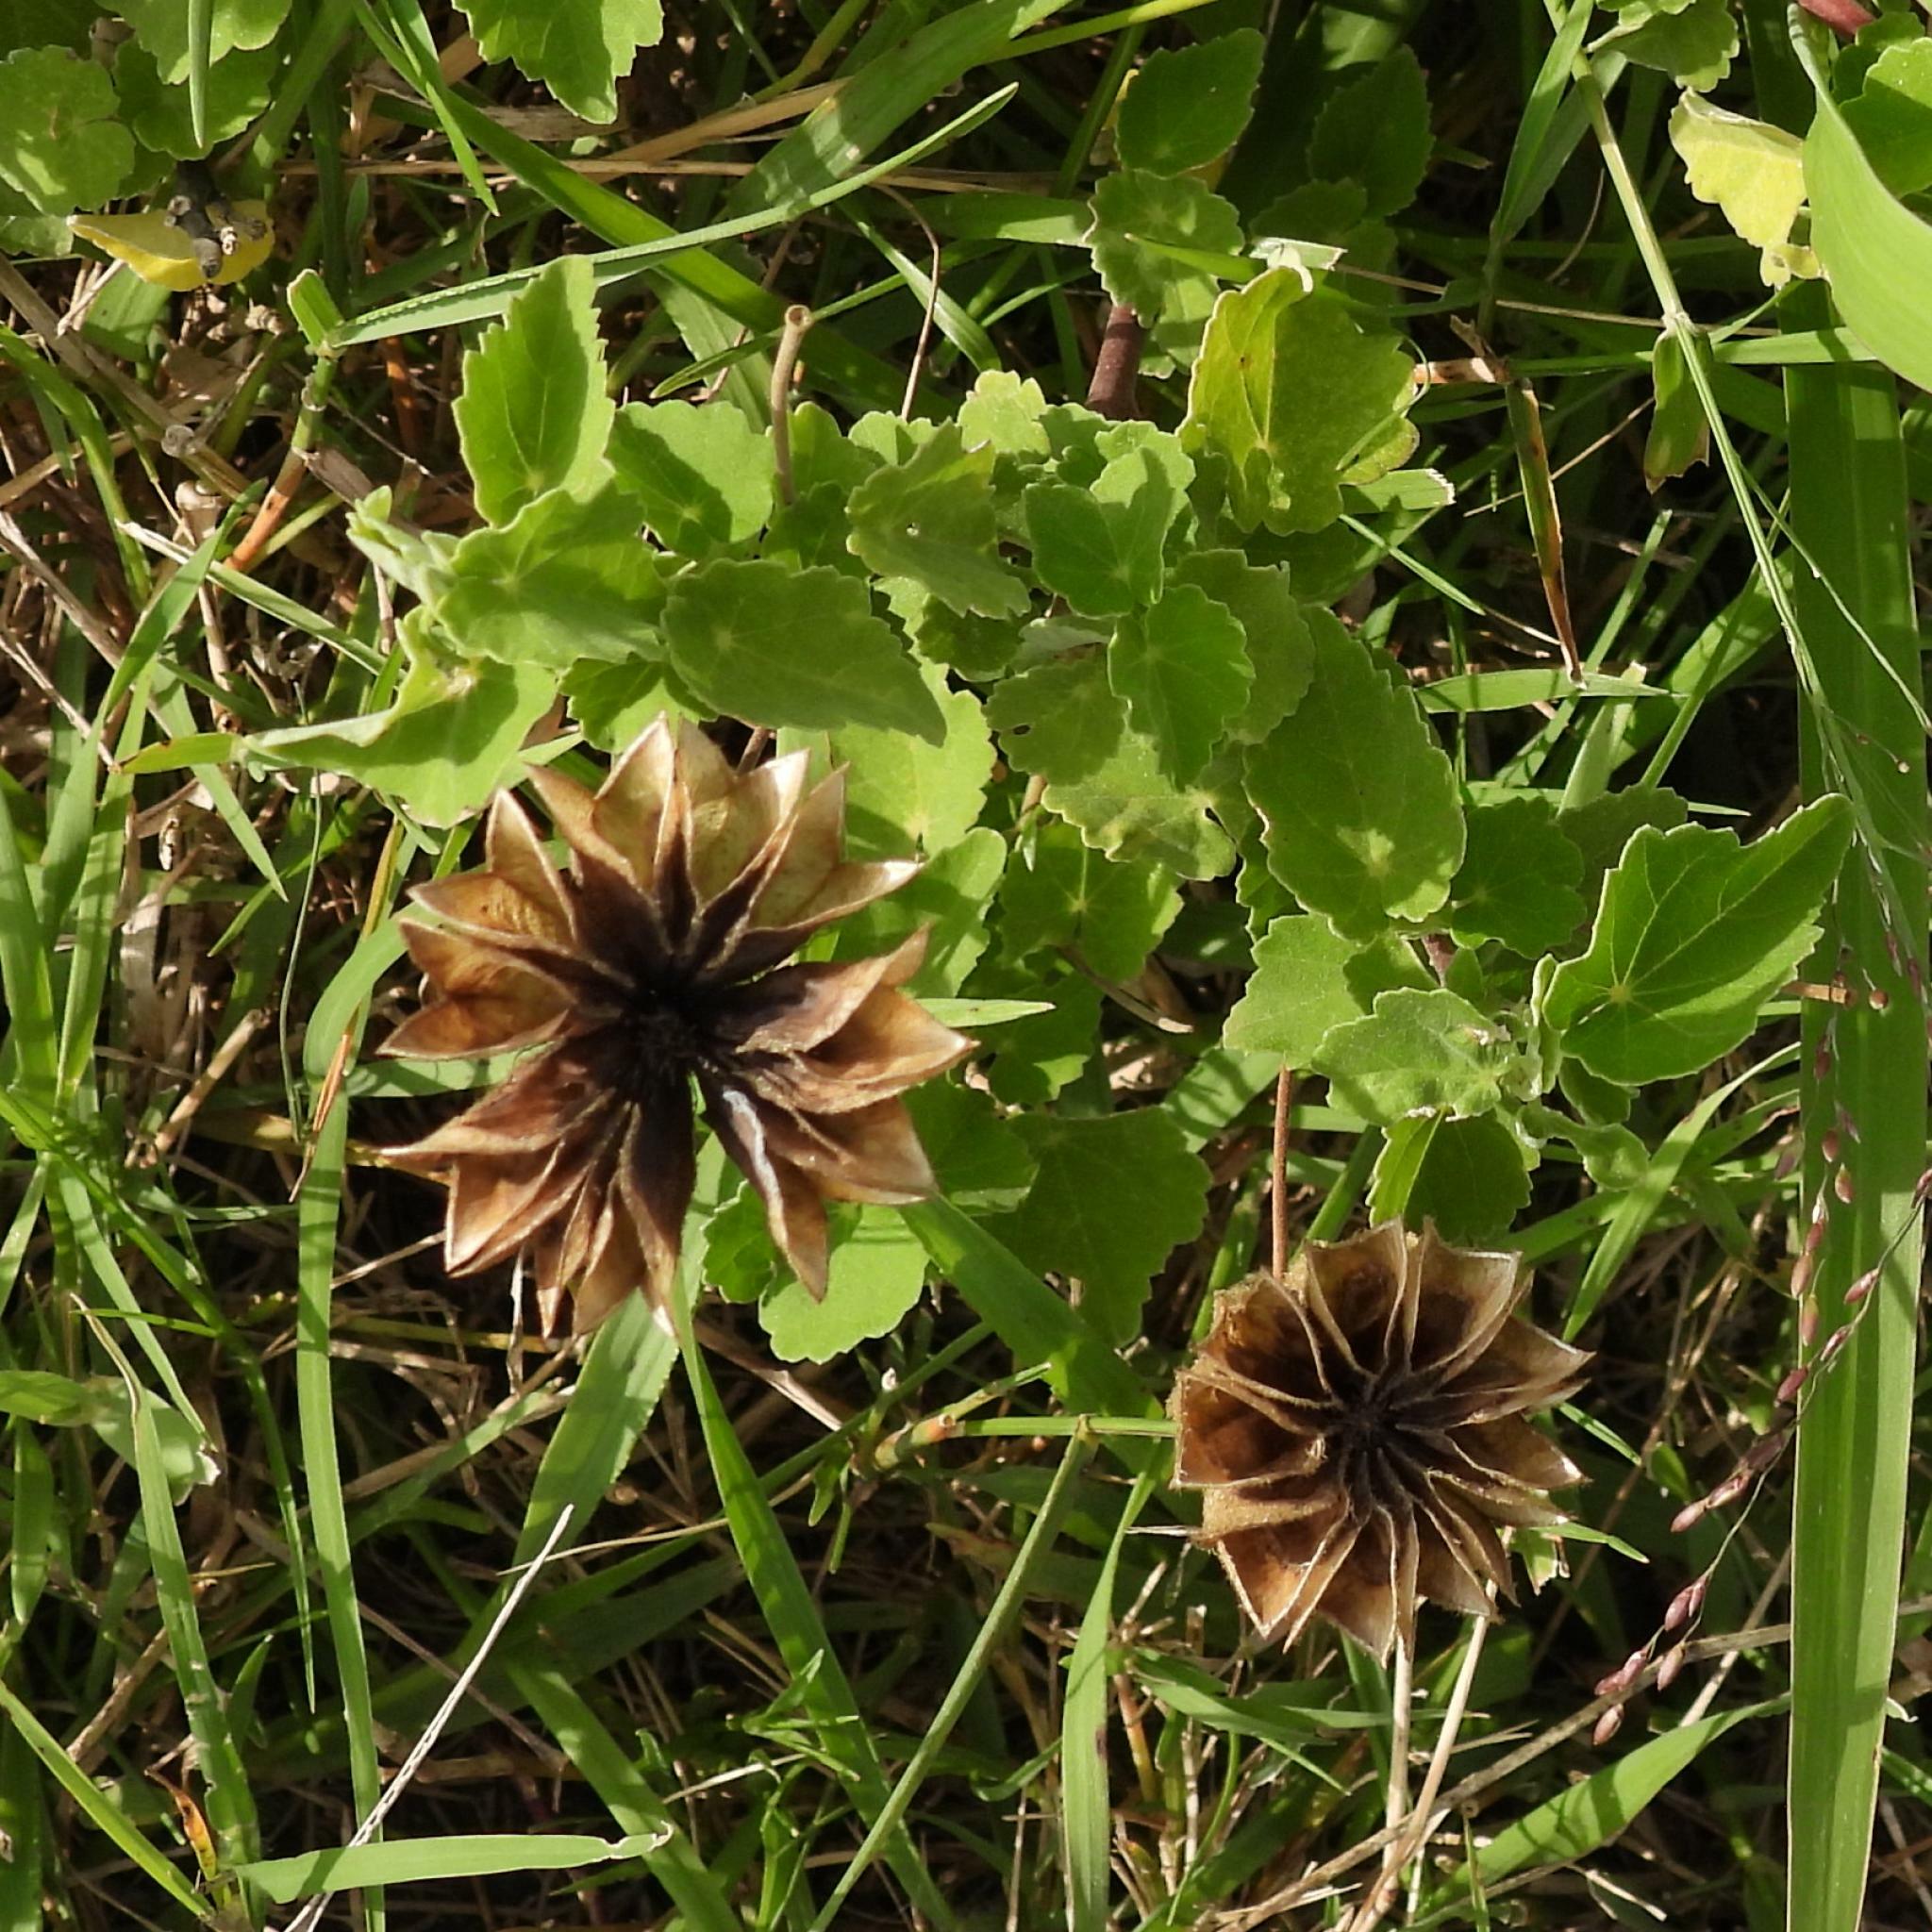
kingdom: Plantae
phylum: Tracheophyta
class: Magnoliopsida
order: Malvales
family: Malvaceae
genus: Abutilon
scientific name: Abutilon sonneratianum
